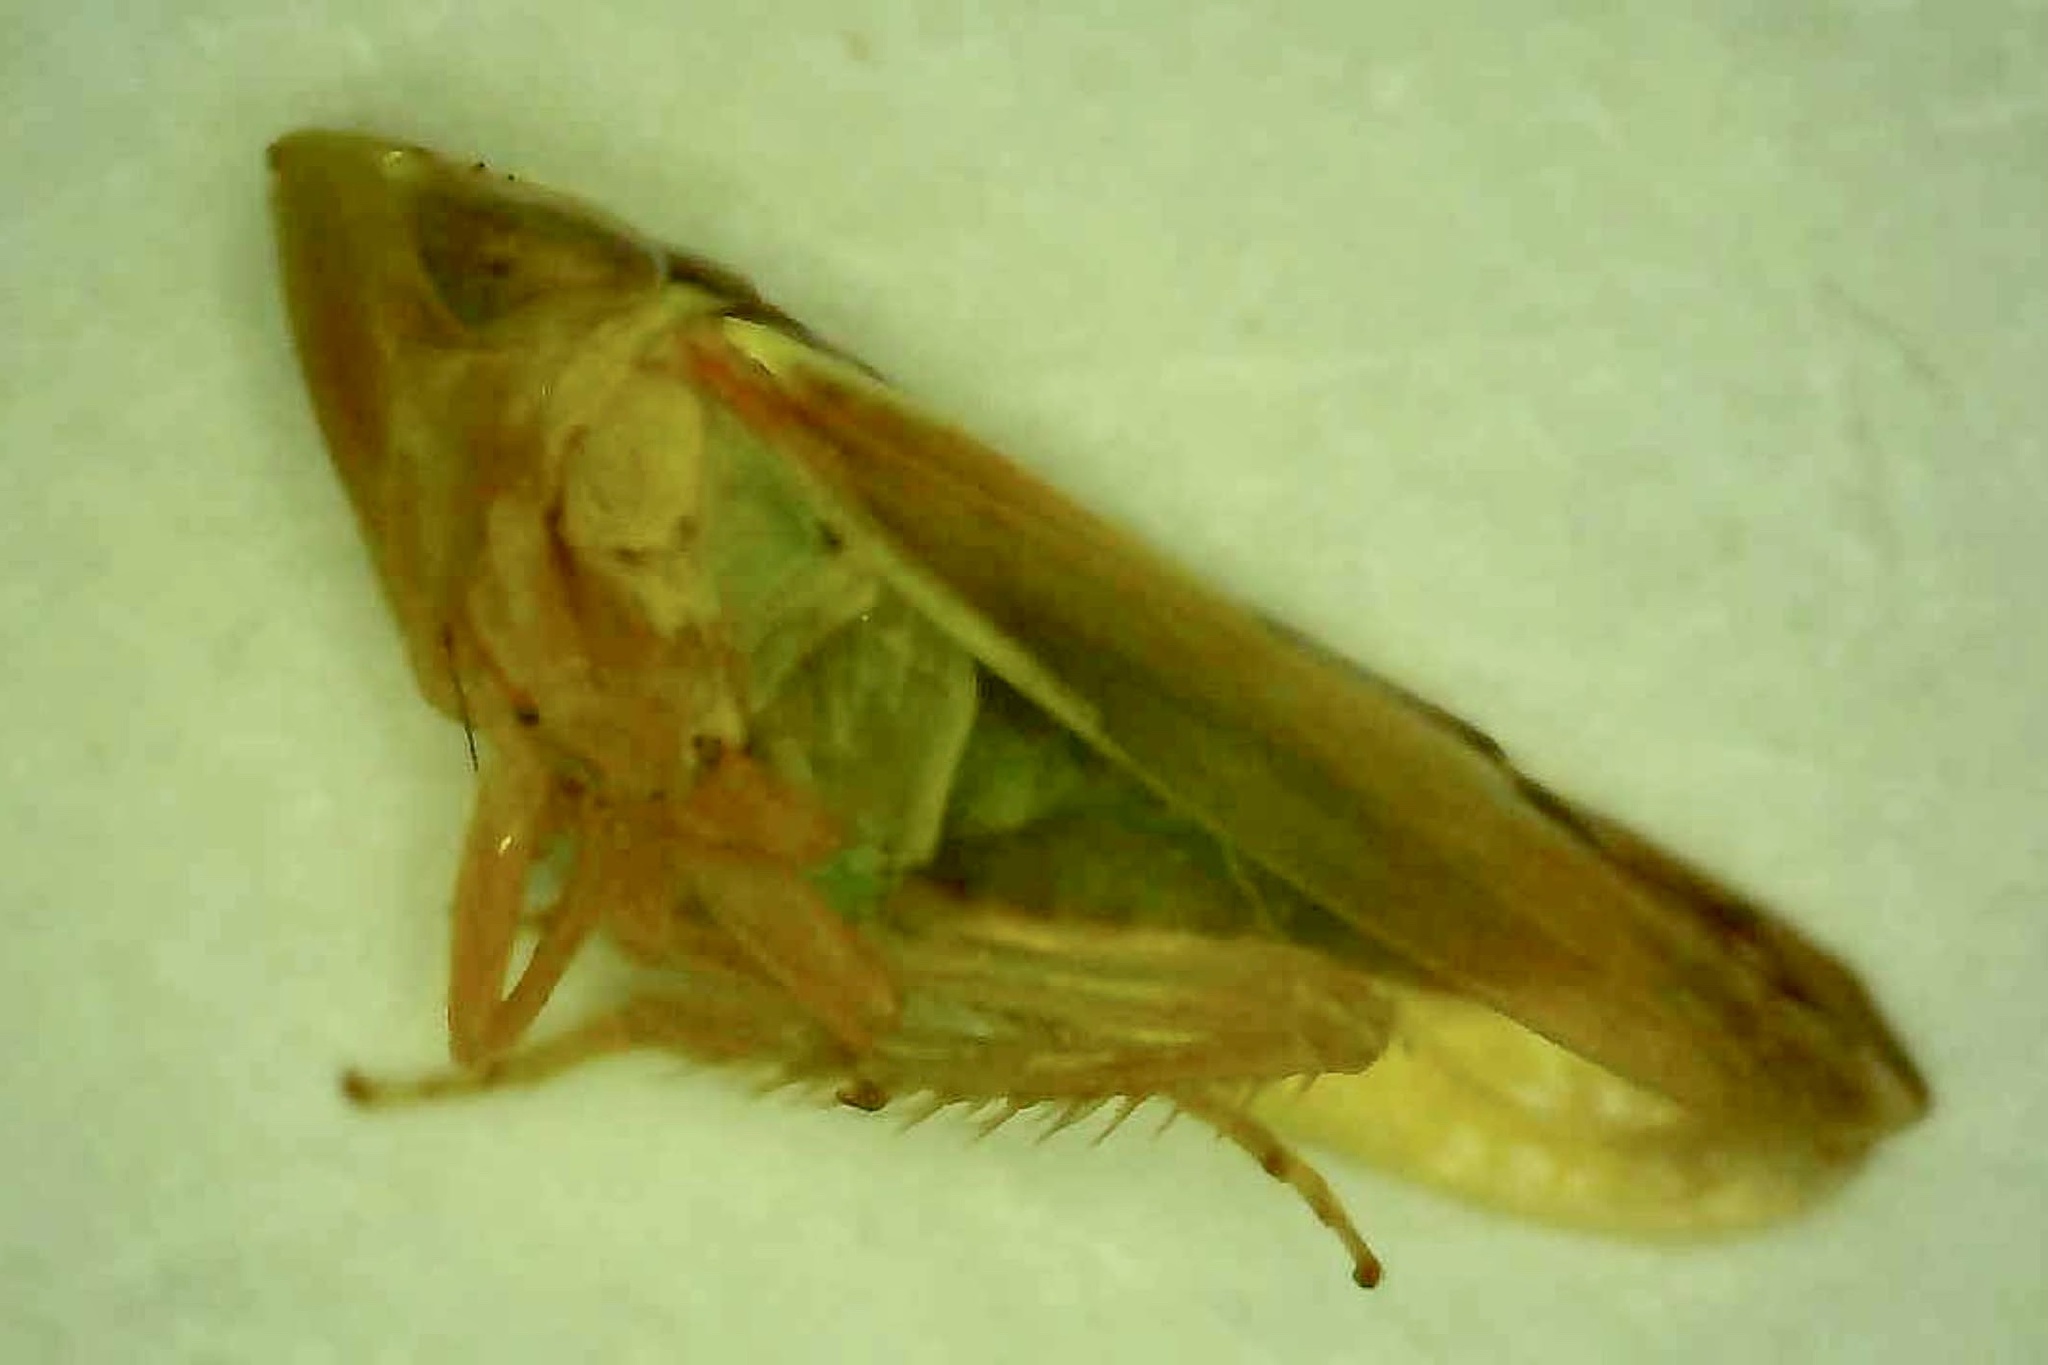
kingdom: Animalia
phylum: Arthropoda
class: Insecta
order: Hemiptera
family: Cicadellidae
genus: Omansobara ing
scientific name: Omansobara ing Omansobara palliolata
